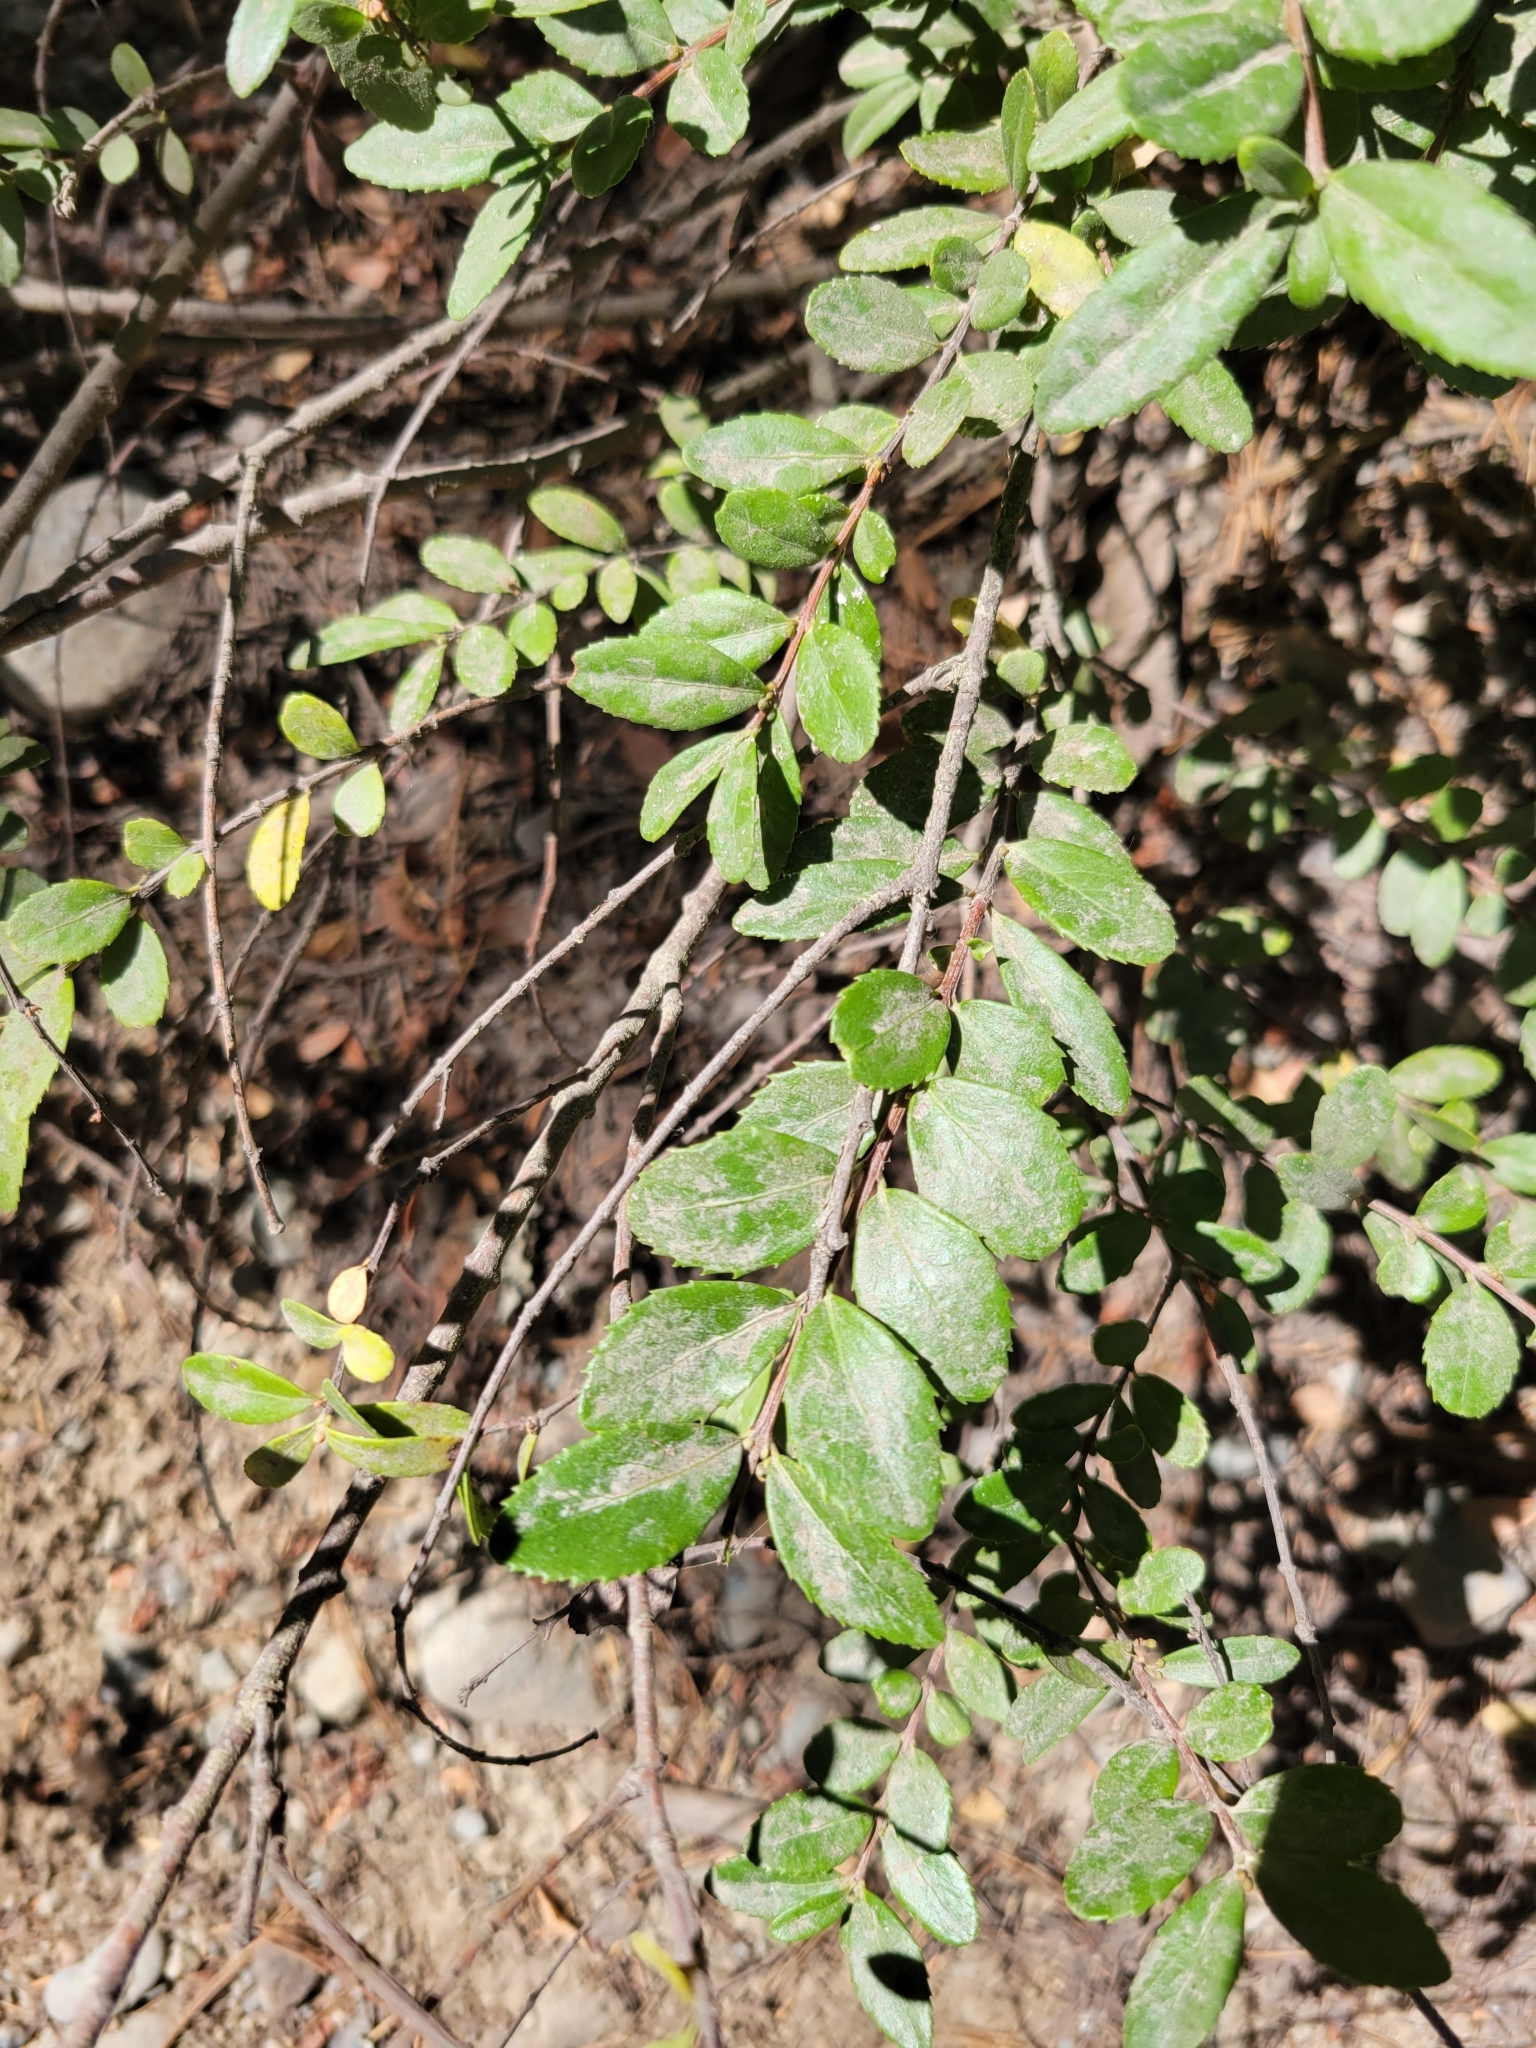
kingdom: Plantae
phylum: Tracheophyta
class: Magnoliopsida
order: Celastrales
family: Celastraceae
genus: Paxistima
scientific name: Paxistima myrsinites
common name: Mountain-lover
